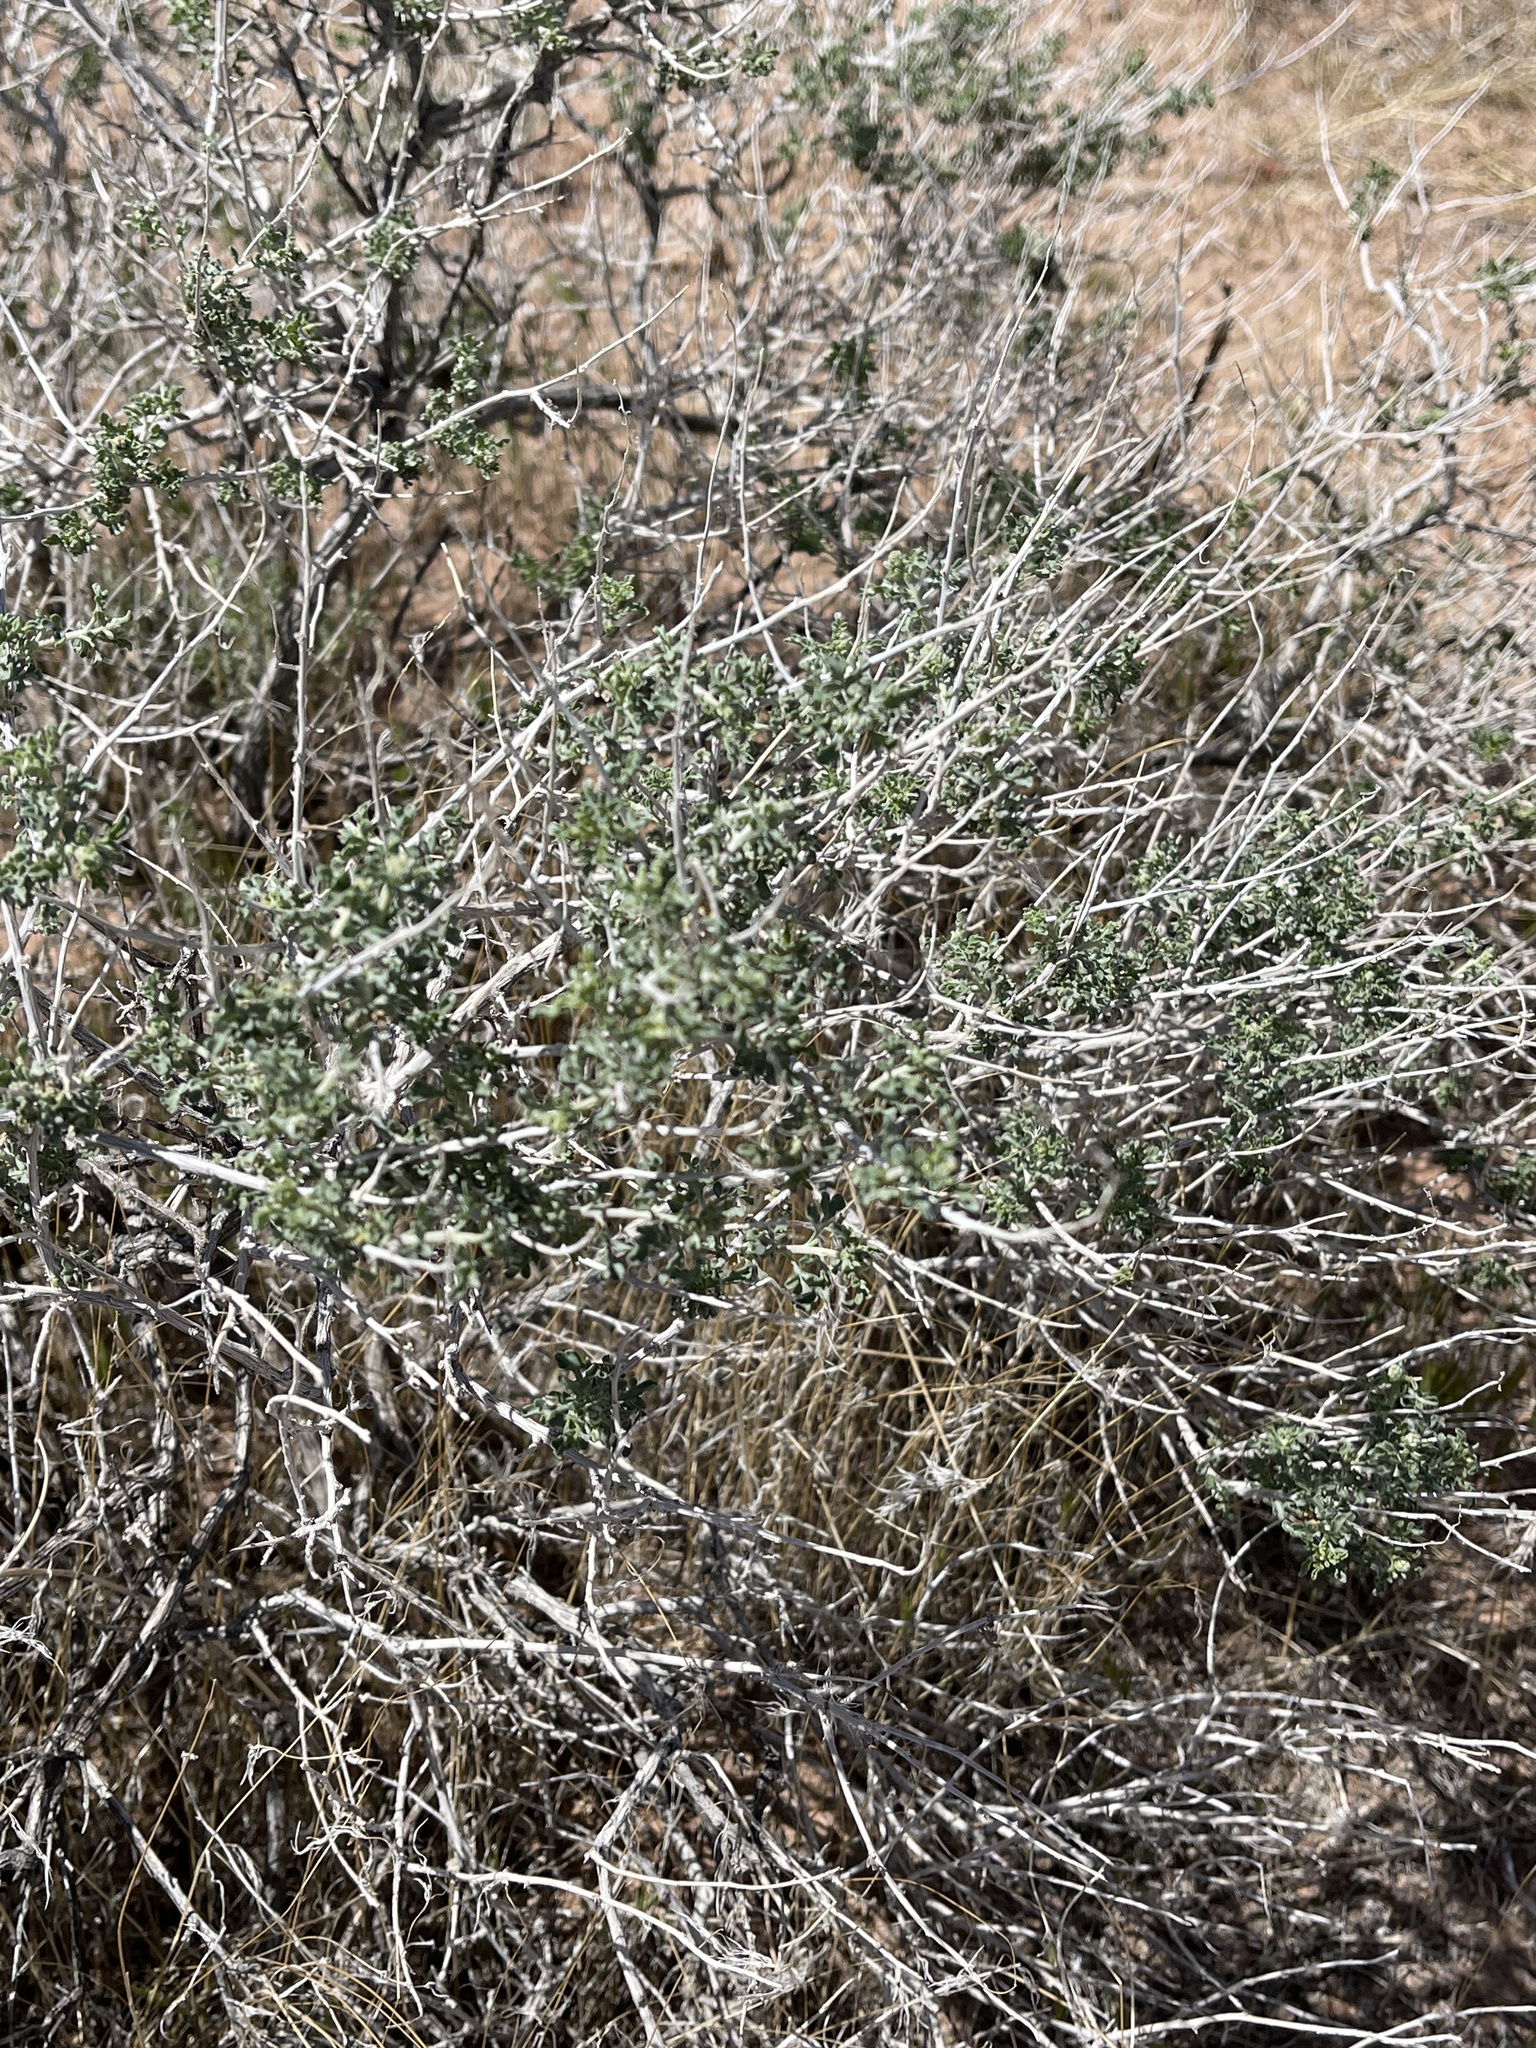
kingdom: Plantae
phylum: Tracheophyta
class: Magnoliopsida
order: Asterales
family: Asteraceae
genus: Ambrosia
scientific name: Ambrosia dumosa
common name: Bur-sage
